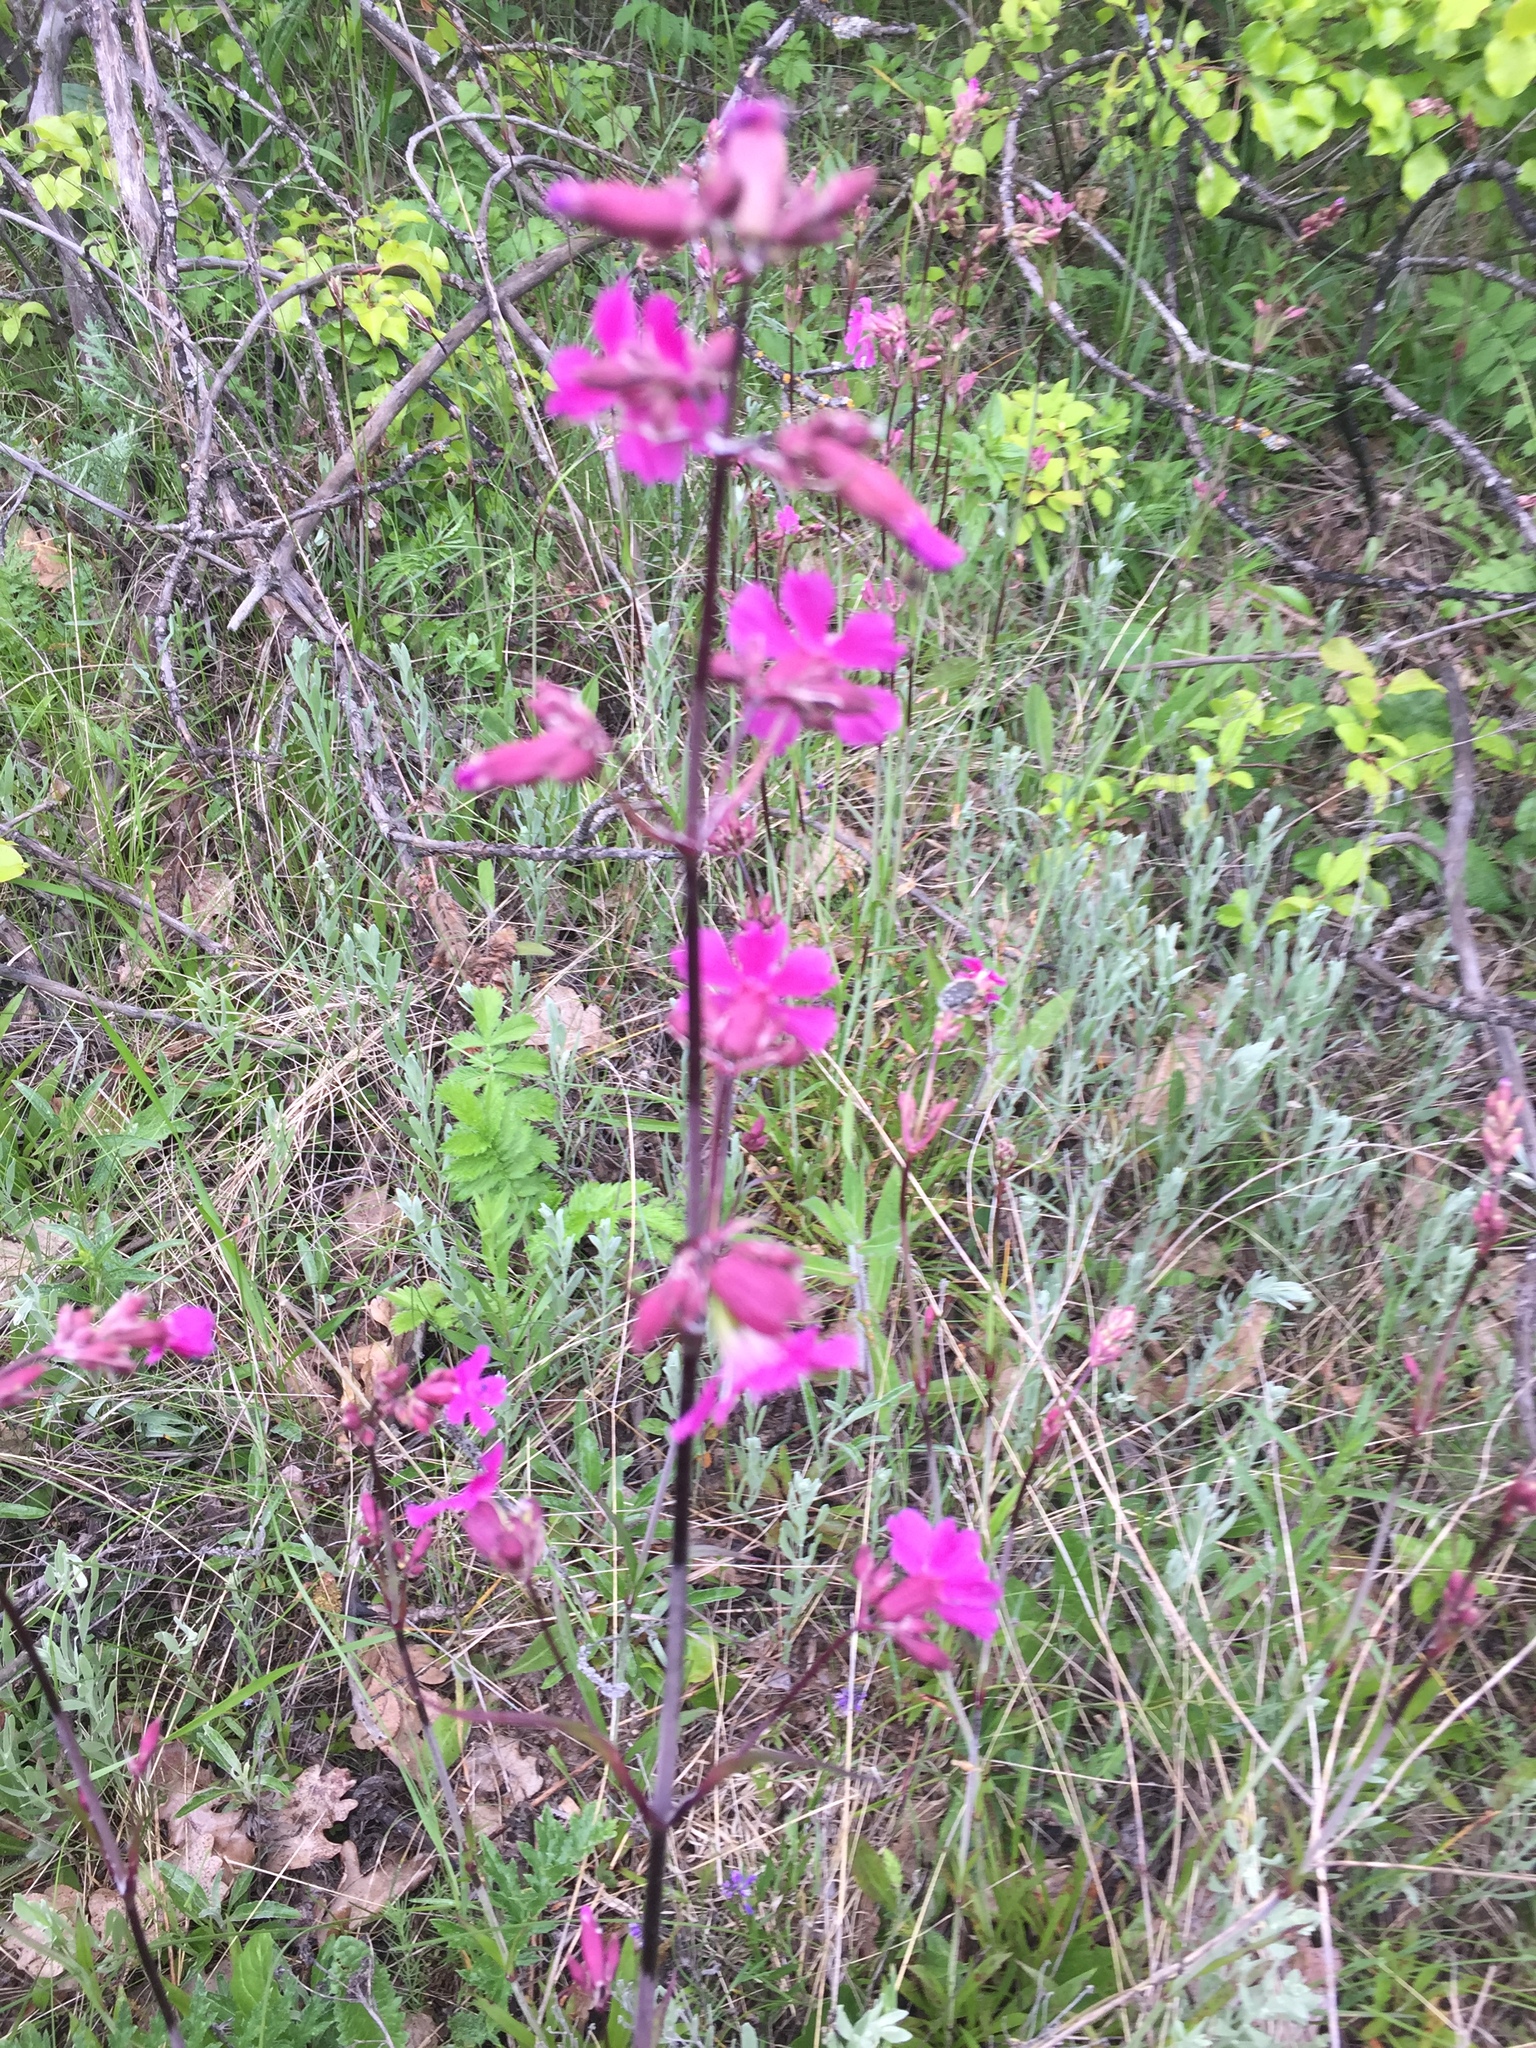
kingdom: Plantae
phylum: Tracheophyta
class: Magnoliopsida
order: Caryophyllales
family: Caryophyllaceae
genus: Viscaria
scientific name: Viscaria vulgaris
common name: Clammy campion
